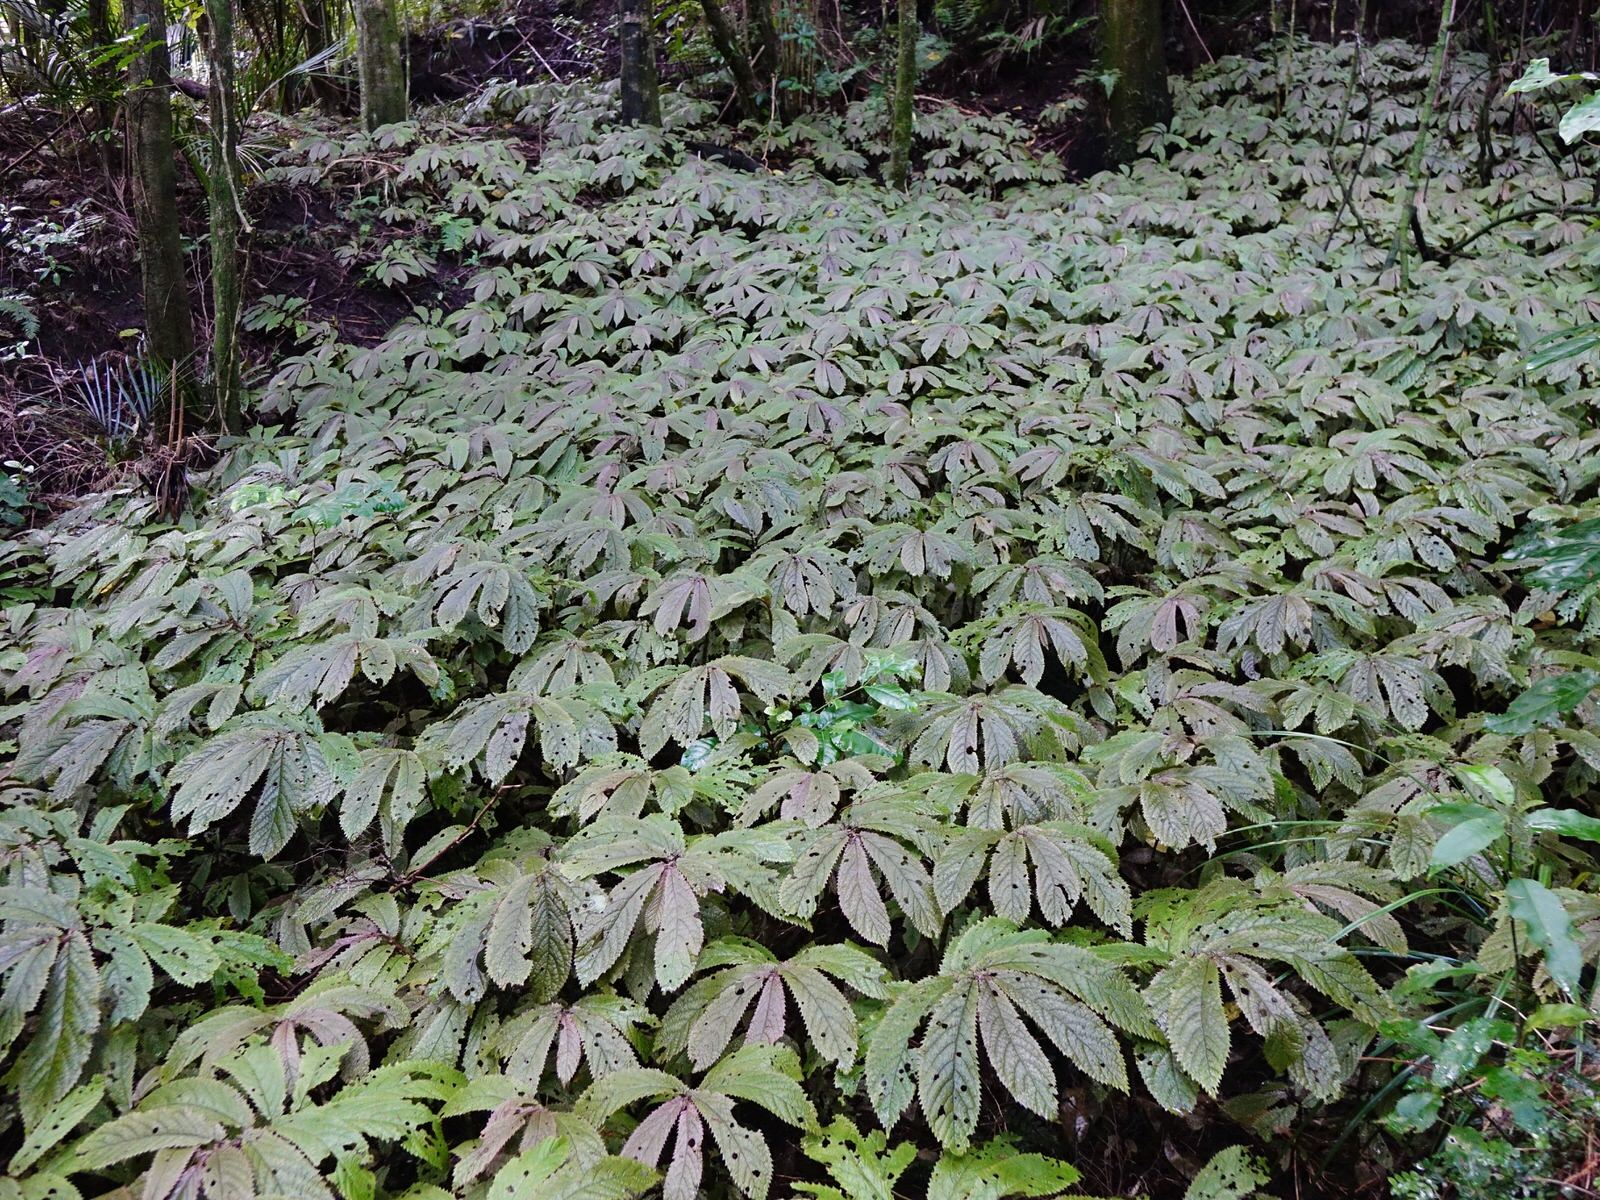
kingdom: Plantae
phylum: Tracheophyta
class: Magnoliopsida
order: Rosales
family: Urticaceae
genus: Elatostema
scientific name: Elatostema rugosum
